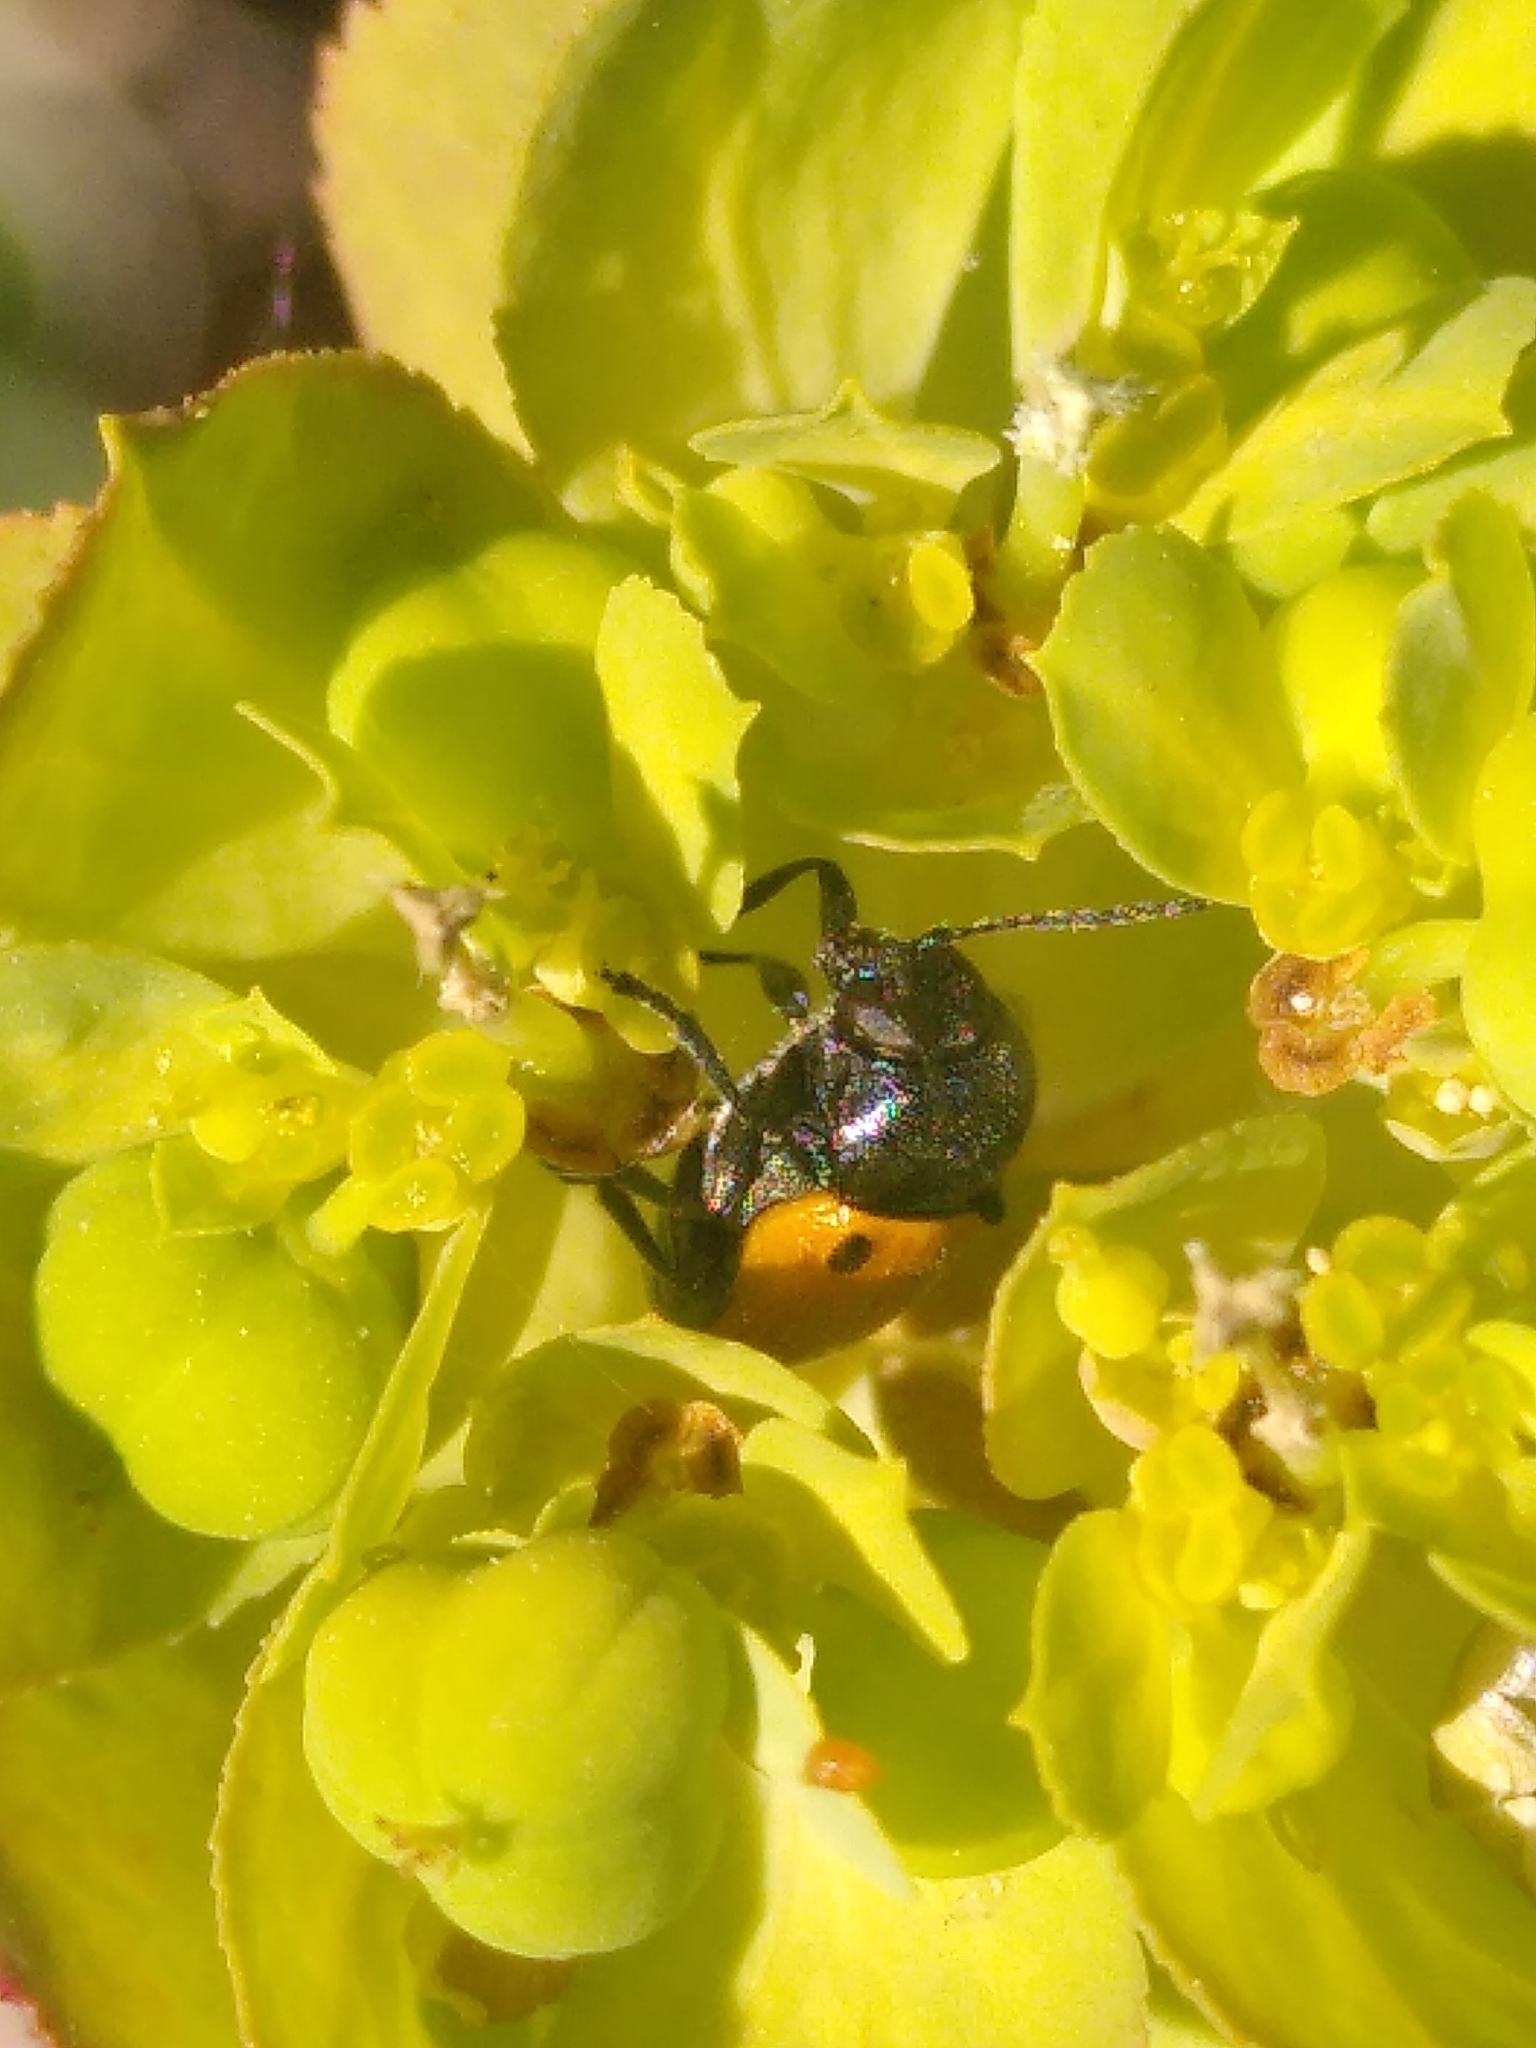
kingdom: Animalia
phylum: Arthropoda
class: Insecta
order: Coleoptera
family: Chrysomelidae
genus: Cryptocephalus
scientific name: Cryptocephalus rugicollis
